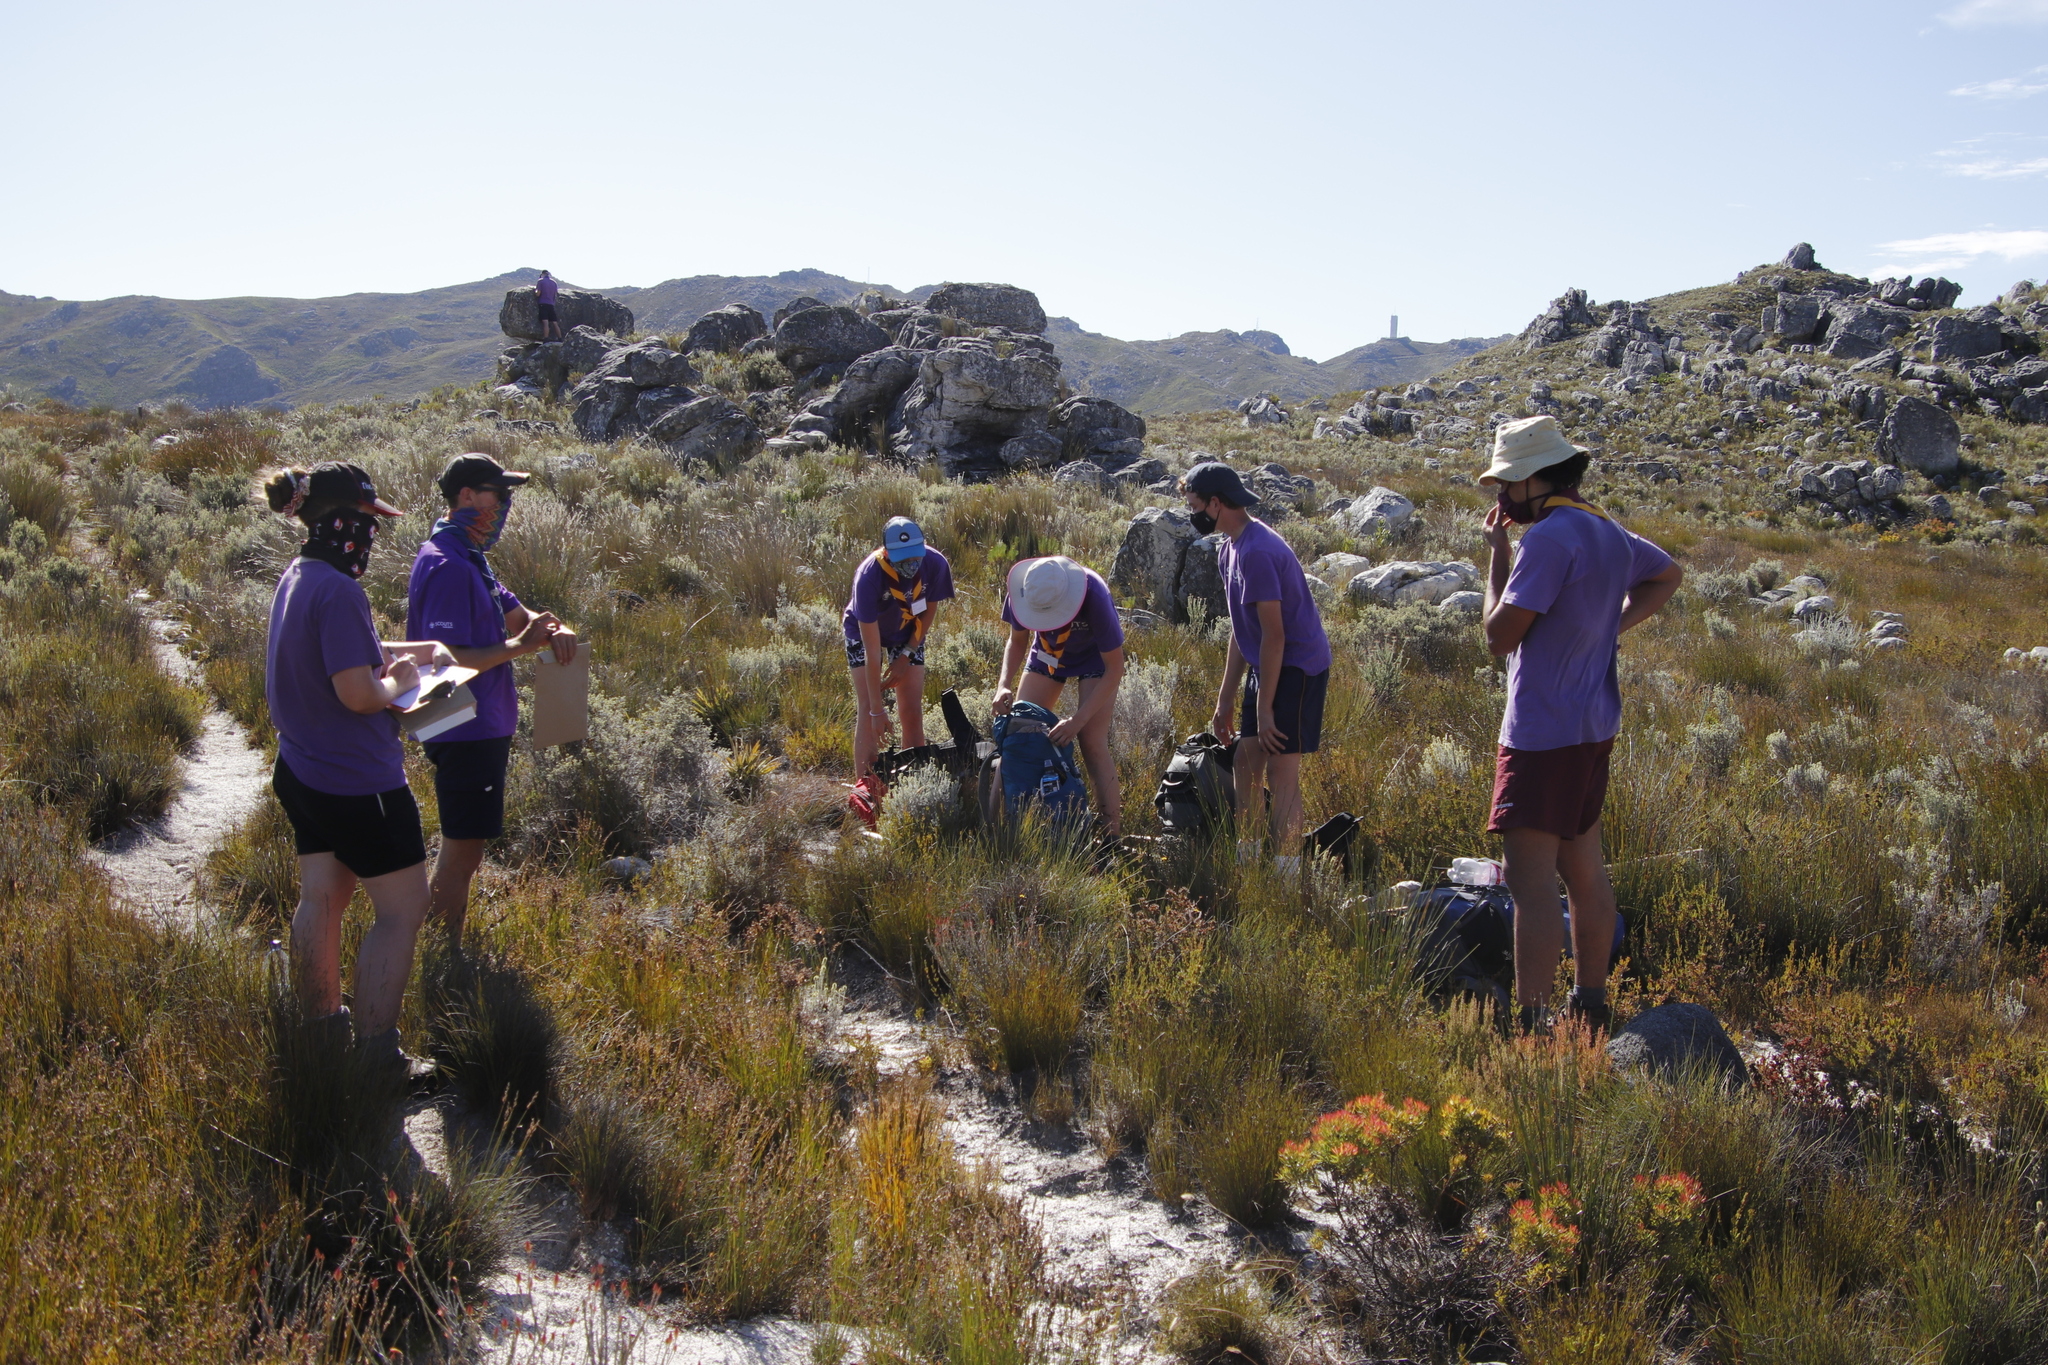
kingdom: Plantae
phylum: Tracheophyta
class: Magnoliopsida
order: Proteales
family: Proteaceae
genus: Leucadendron
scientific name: Leucadendron spissifolium
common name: Spear-leaf conebush
